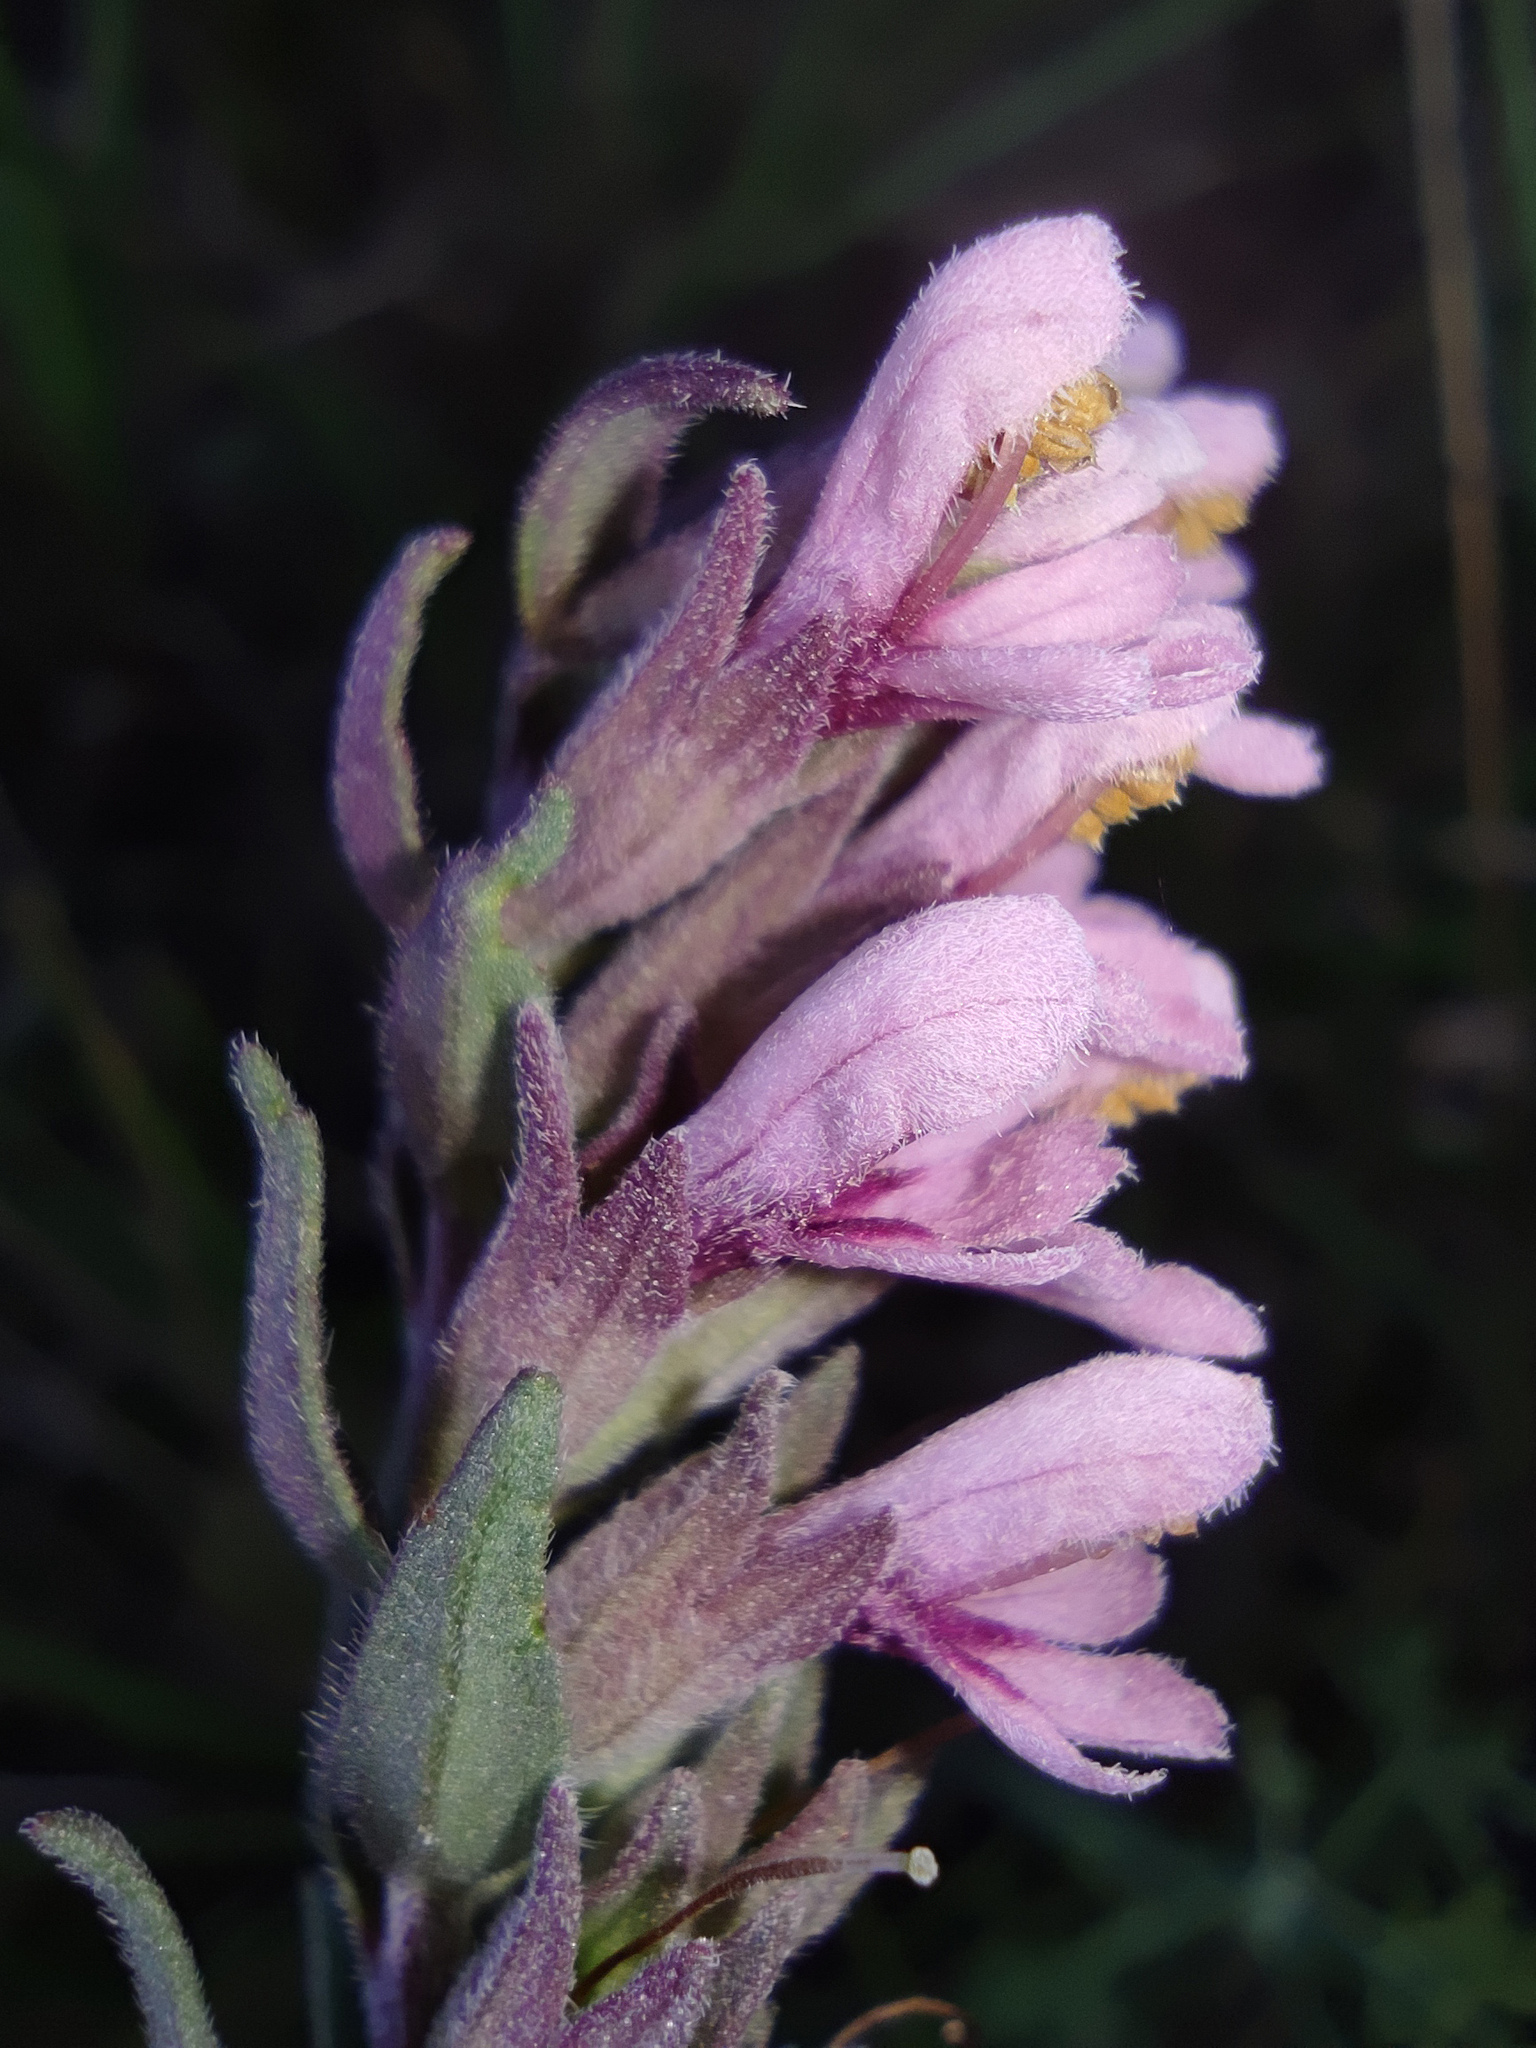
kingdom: Plantae
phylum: Tracheophyta
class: Magnoliopsida
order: Lamiales
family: Orobanchaceae
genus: Odontites
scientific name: Odontites vulgaris
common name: Broomrape
